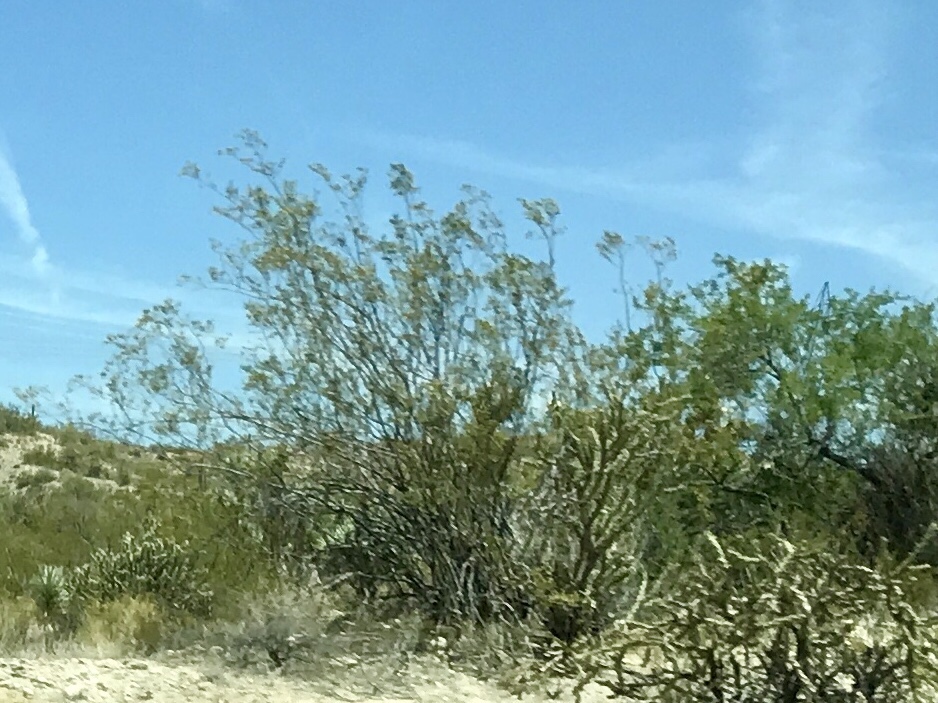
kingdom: Plantae
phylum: Tracheophyta
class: Magnoliopsida
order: Zygophyllales
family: Zygophyllaceae
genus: Larrea
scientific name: Larrea tridentata
